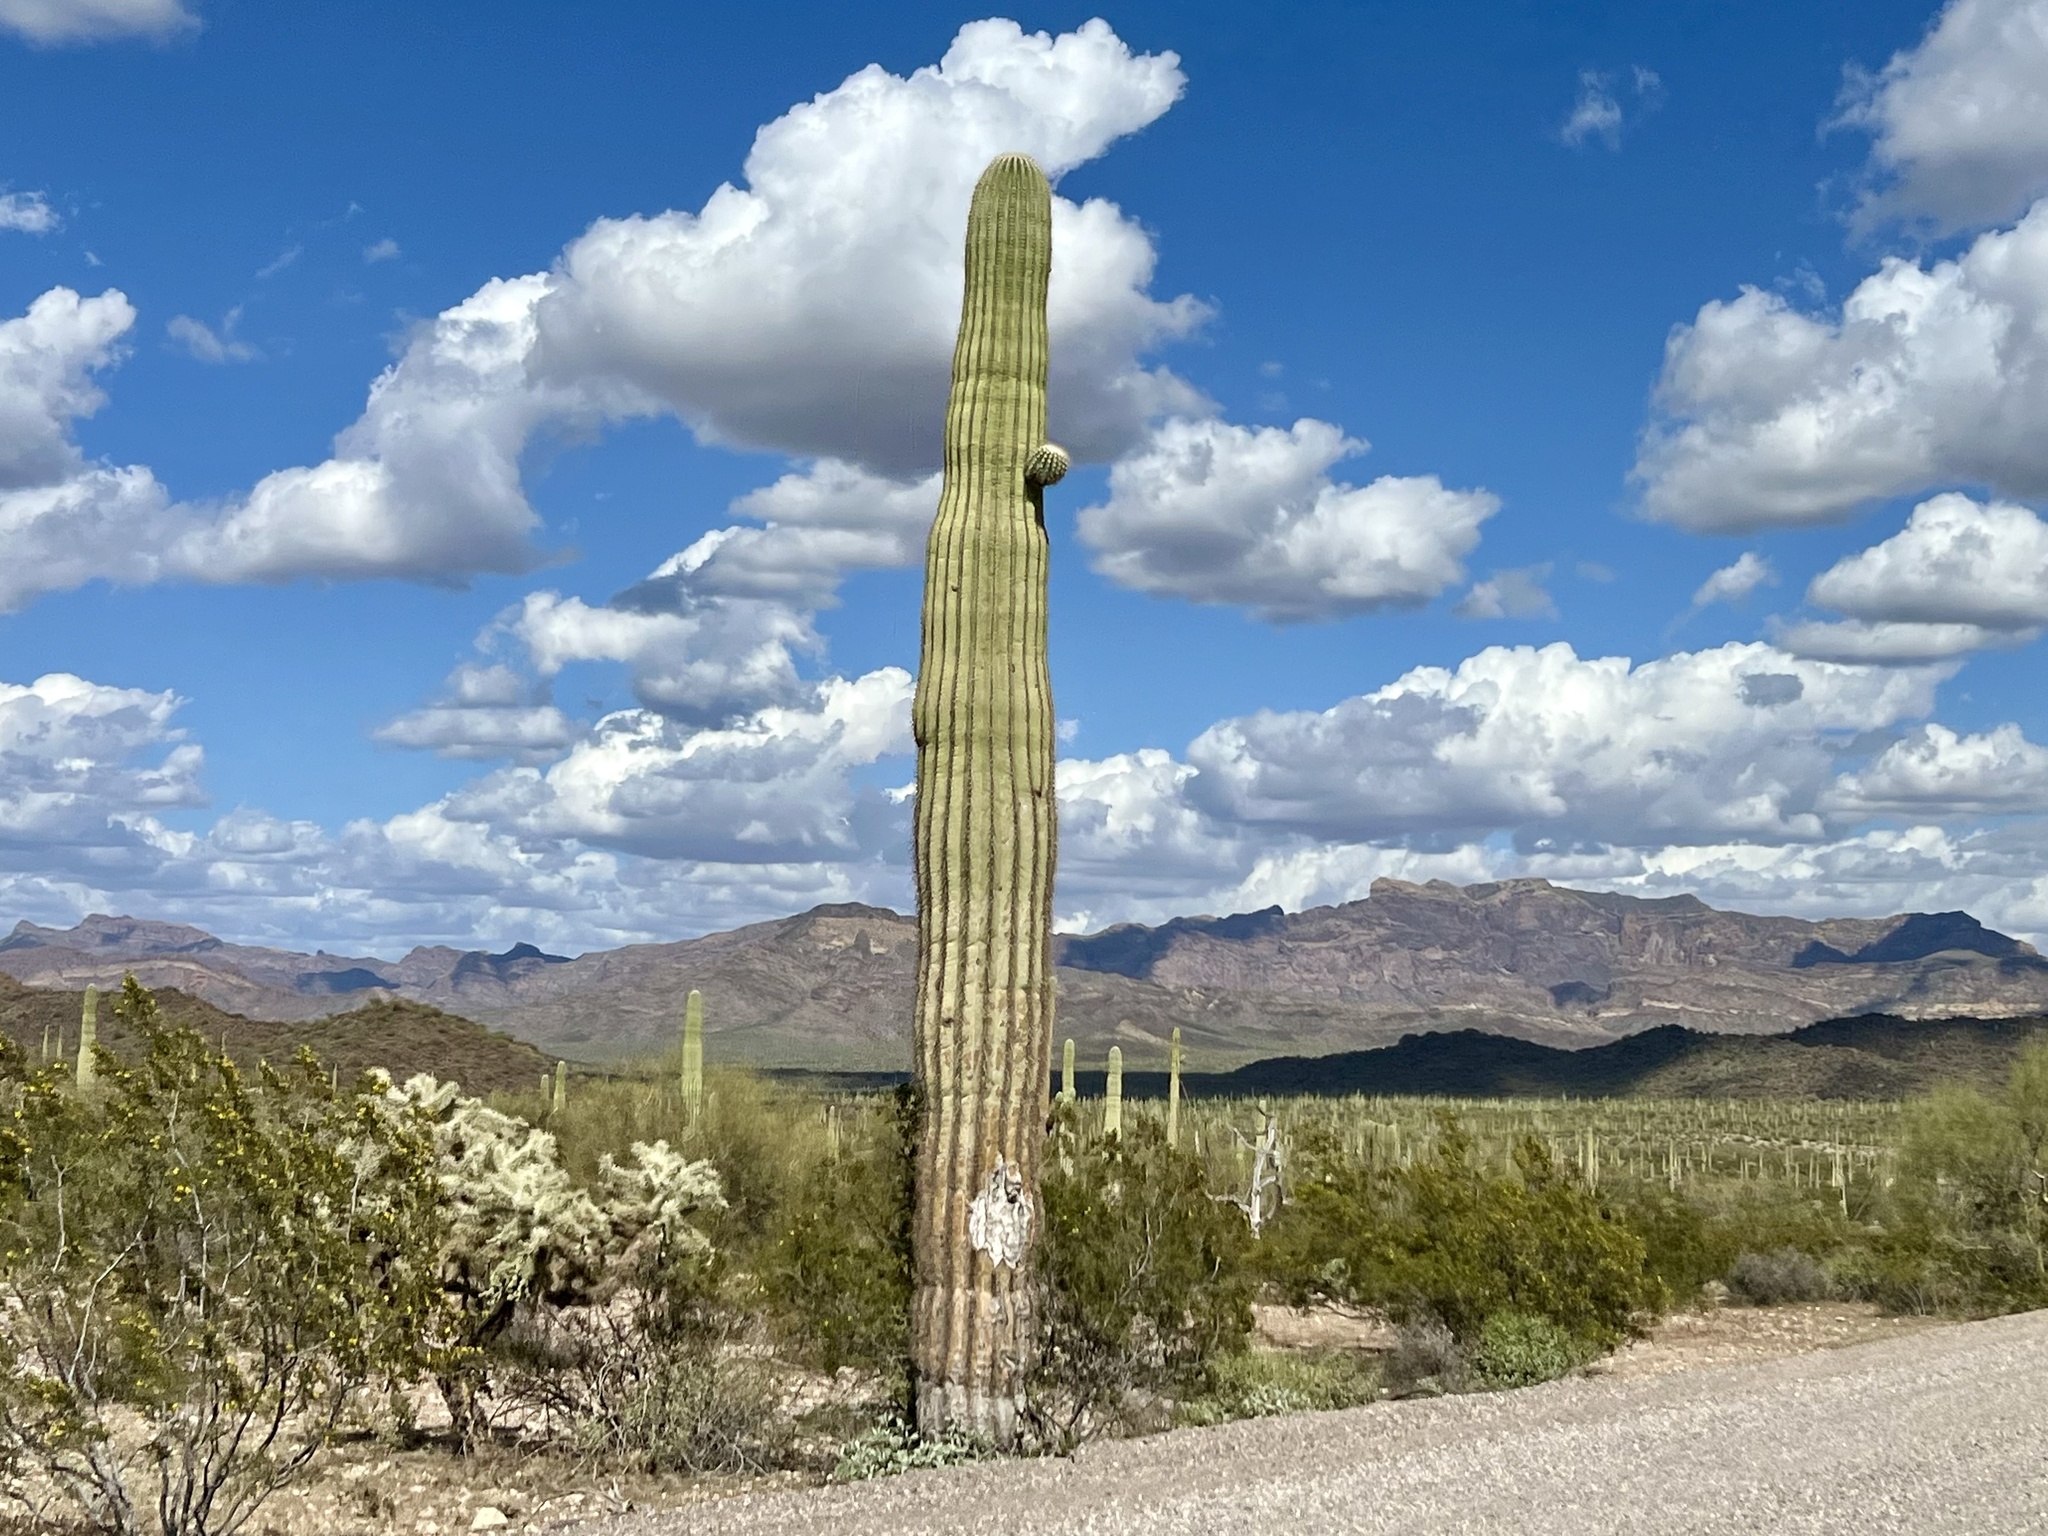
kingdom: Plantae
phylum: Tracheophyta
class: Magnoliopsida
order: Caryophyllales
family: Cactaceae
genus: Carnegiea
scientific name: Carnegiea gigantea
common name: Saguaro
